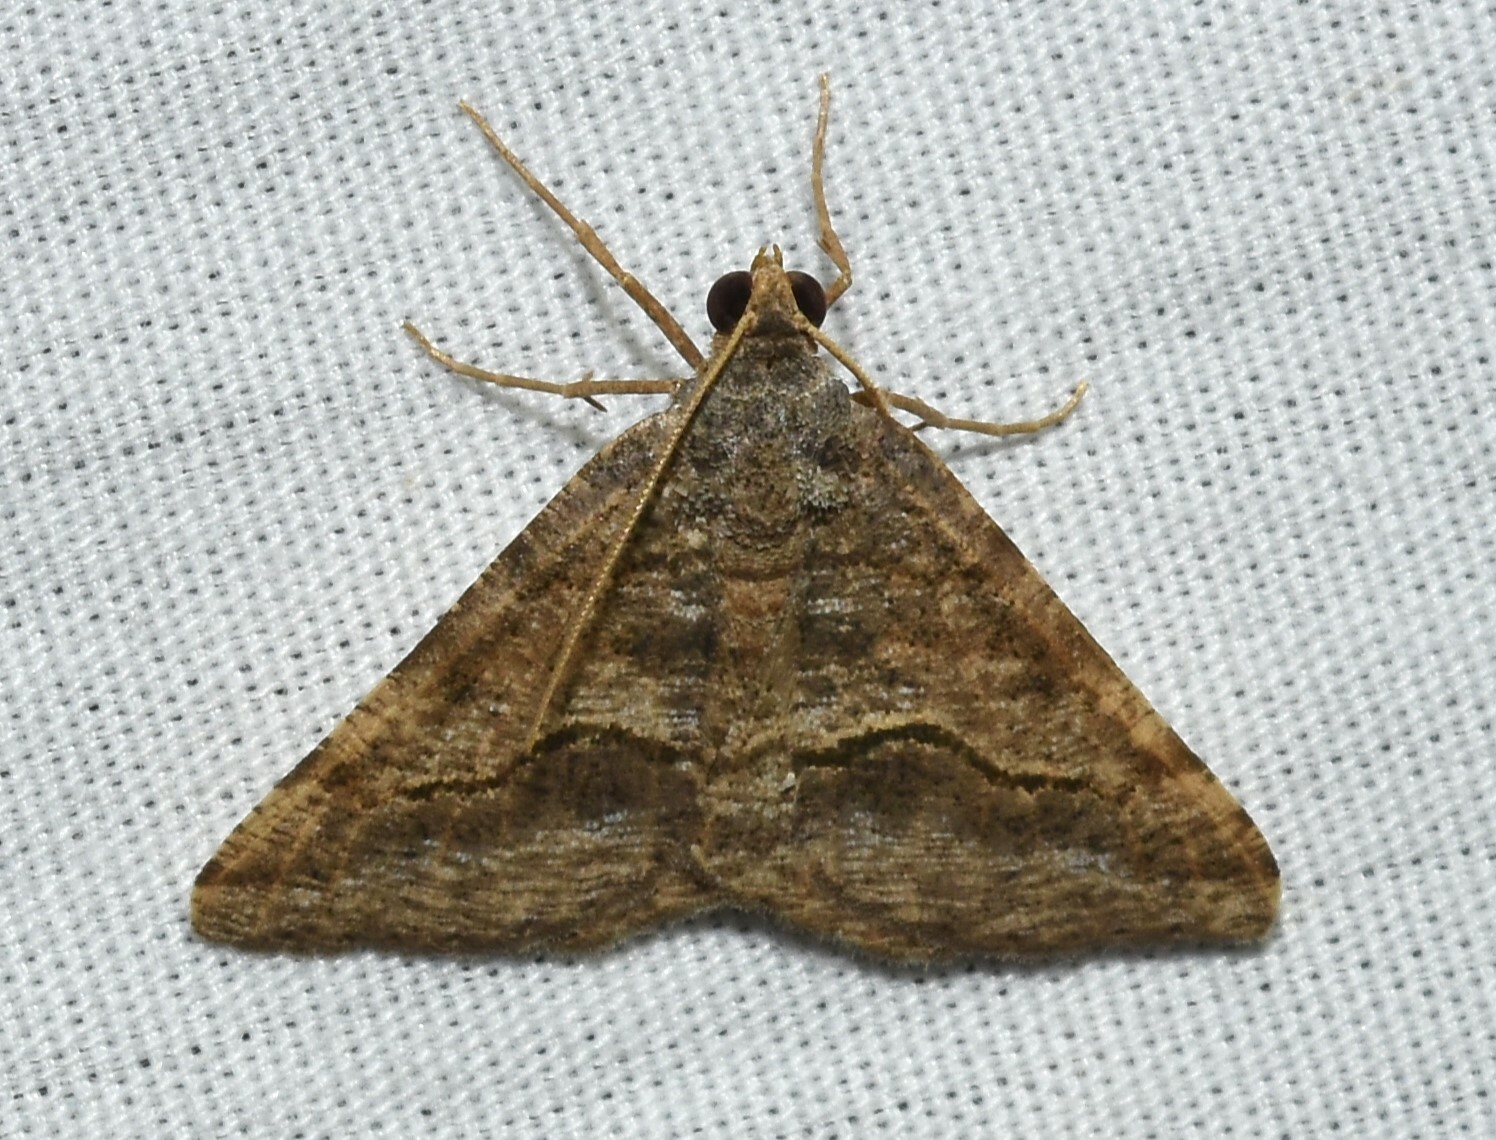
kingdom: Animalia
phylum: Arthropoda
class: Insecta
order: Lepidoptera
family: Geometridae
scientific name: Geometridae
